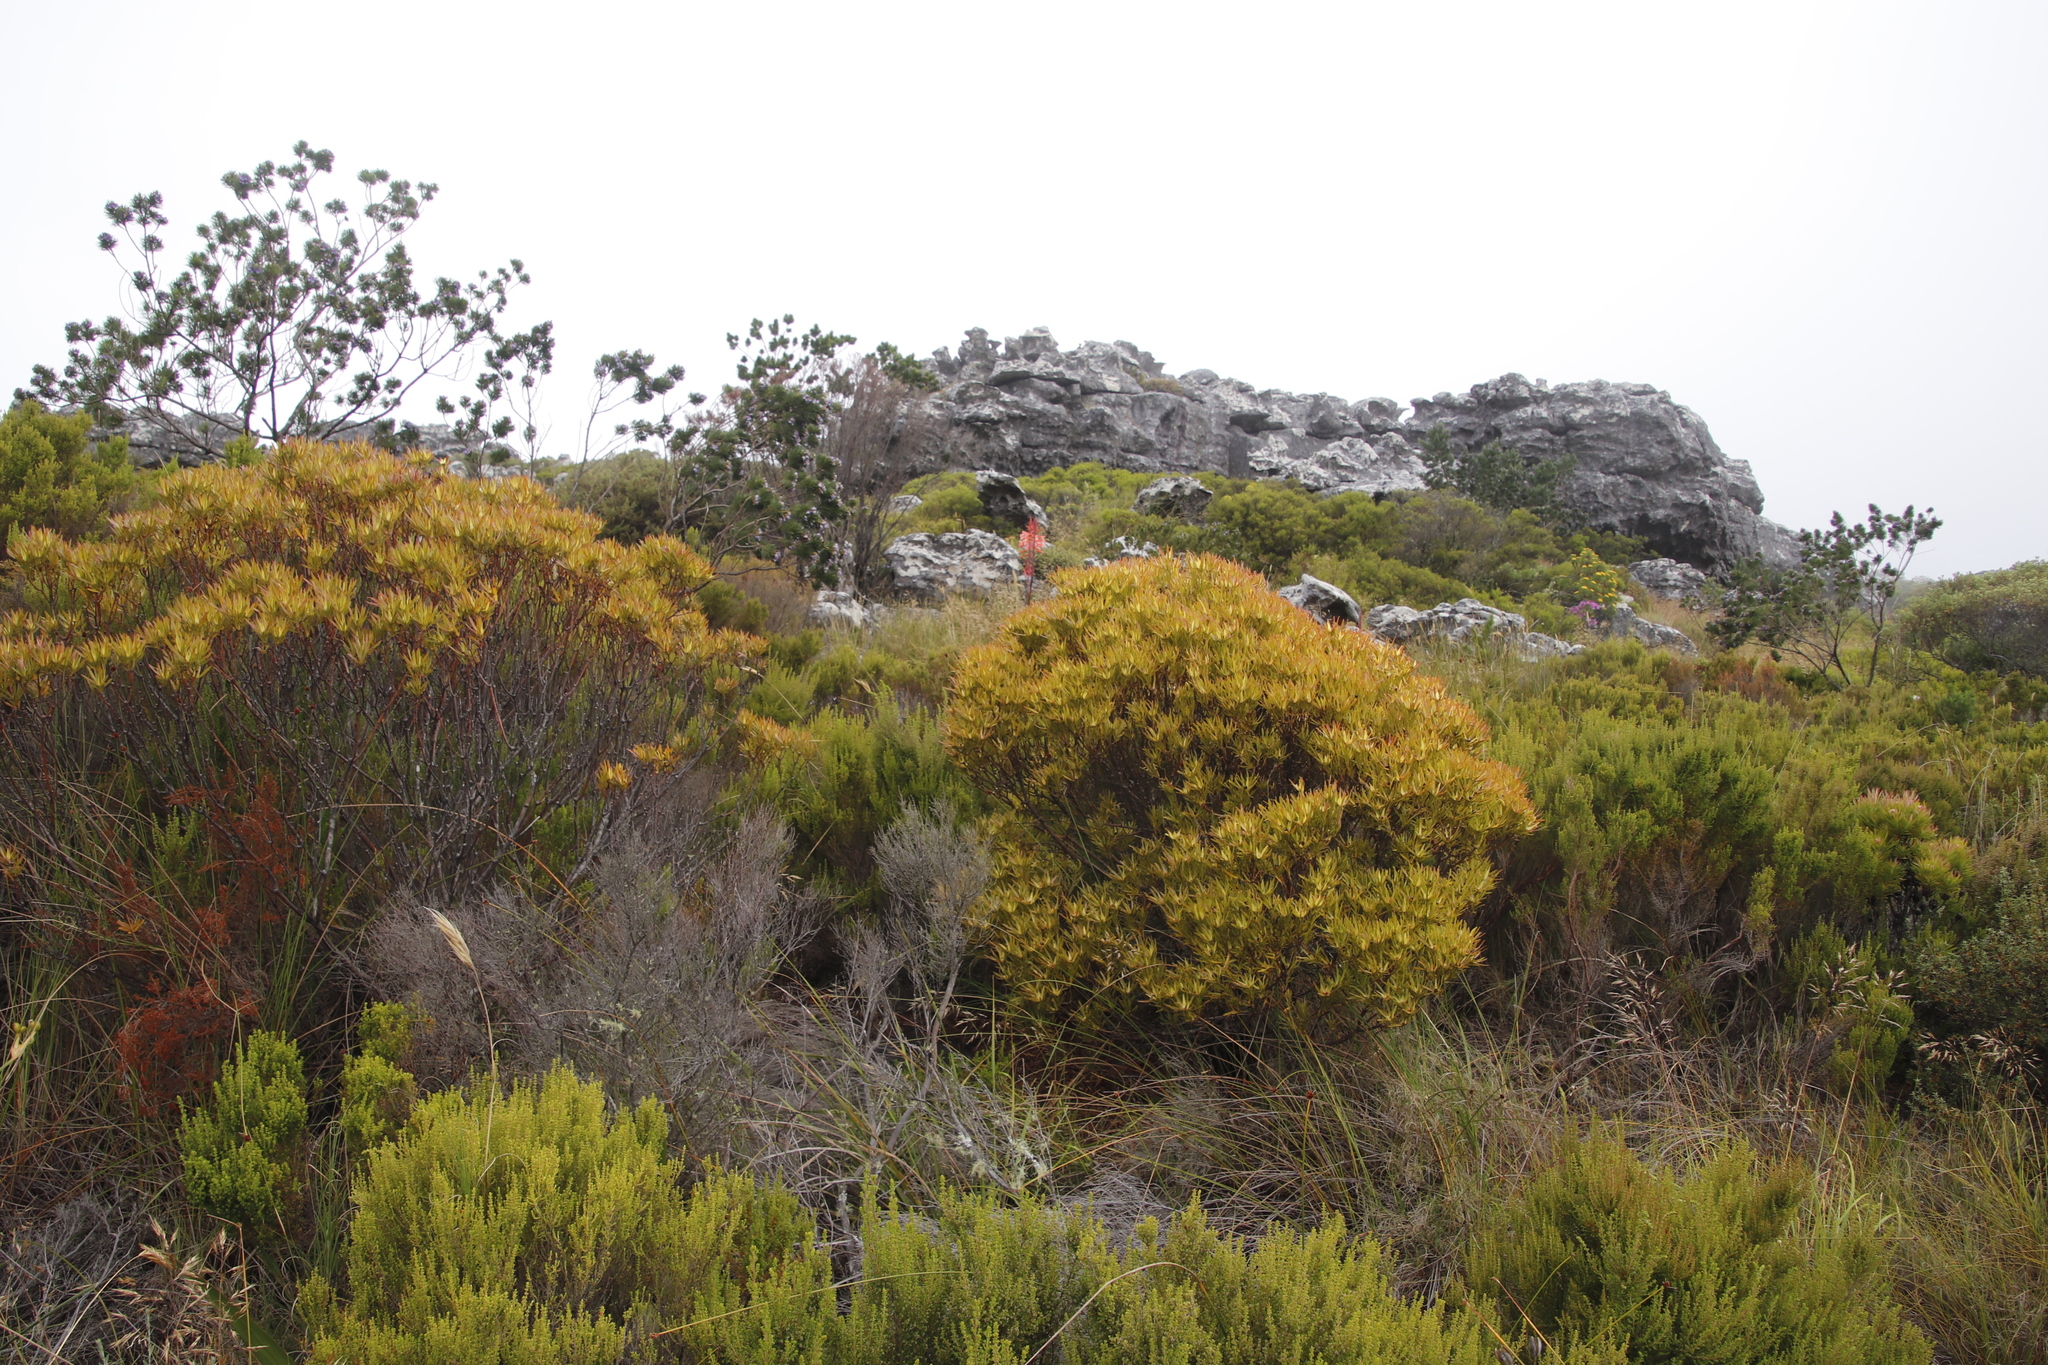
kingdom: Plantae
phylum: Tracheophyta
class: Magnoliopsida
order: Proteales
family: Proteaceae
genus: Leucadendron
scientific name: Leucadendron xanthoconus
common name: Sickle-leaf conebush
